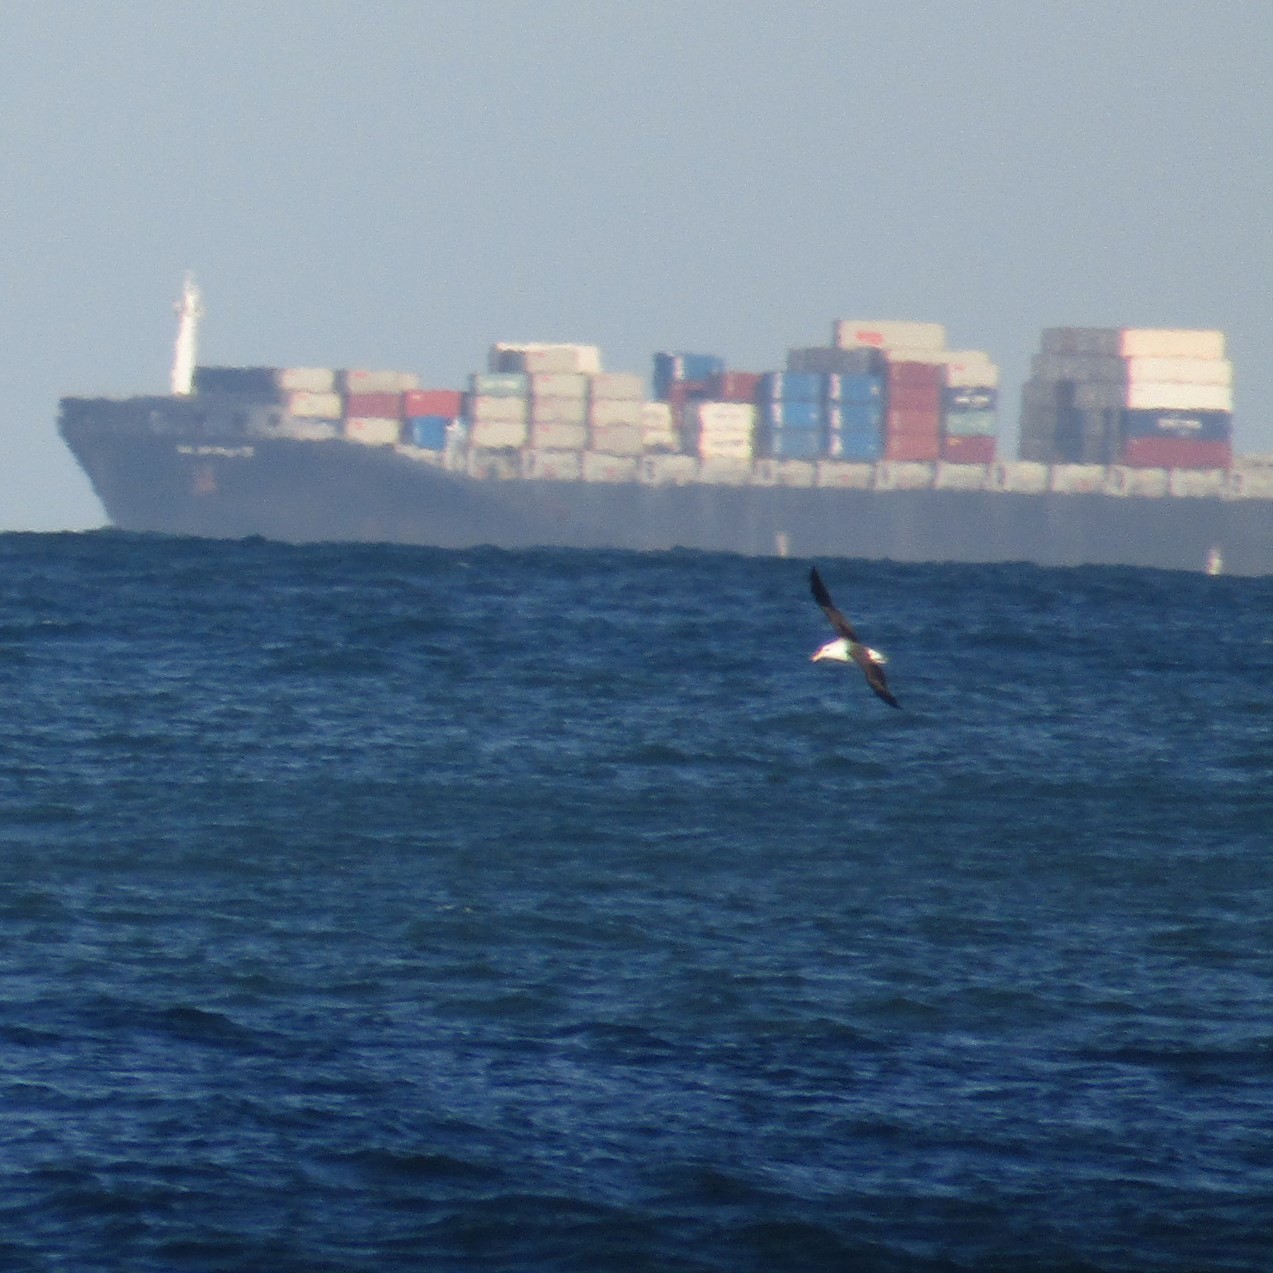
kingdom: Animalia
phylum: Chordata
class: Aves
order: Procellariiformes
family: Diomedeidae
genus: Thalassarche
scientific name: Thalassarche melanophris
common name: Black-browed albatross
